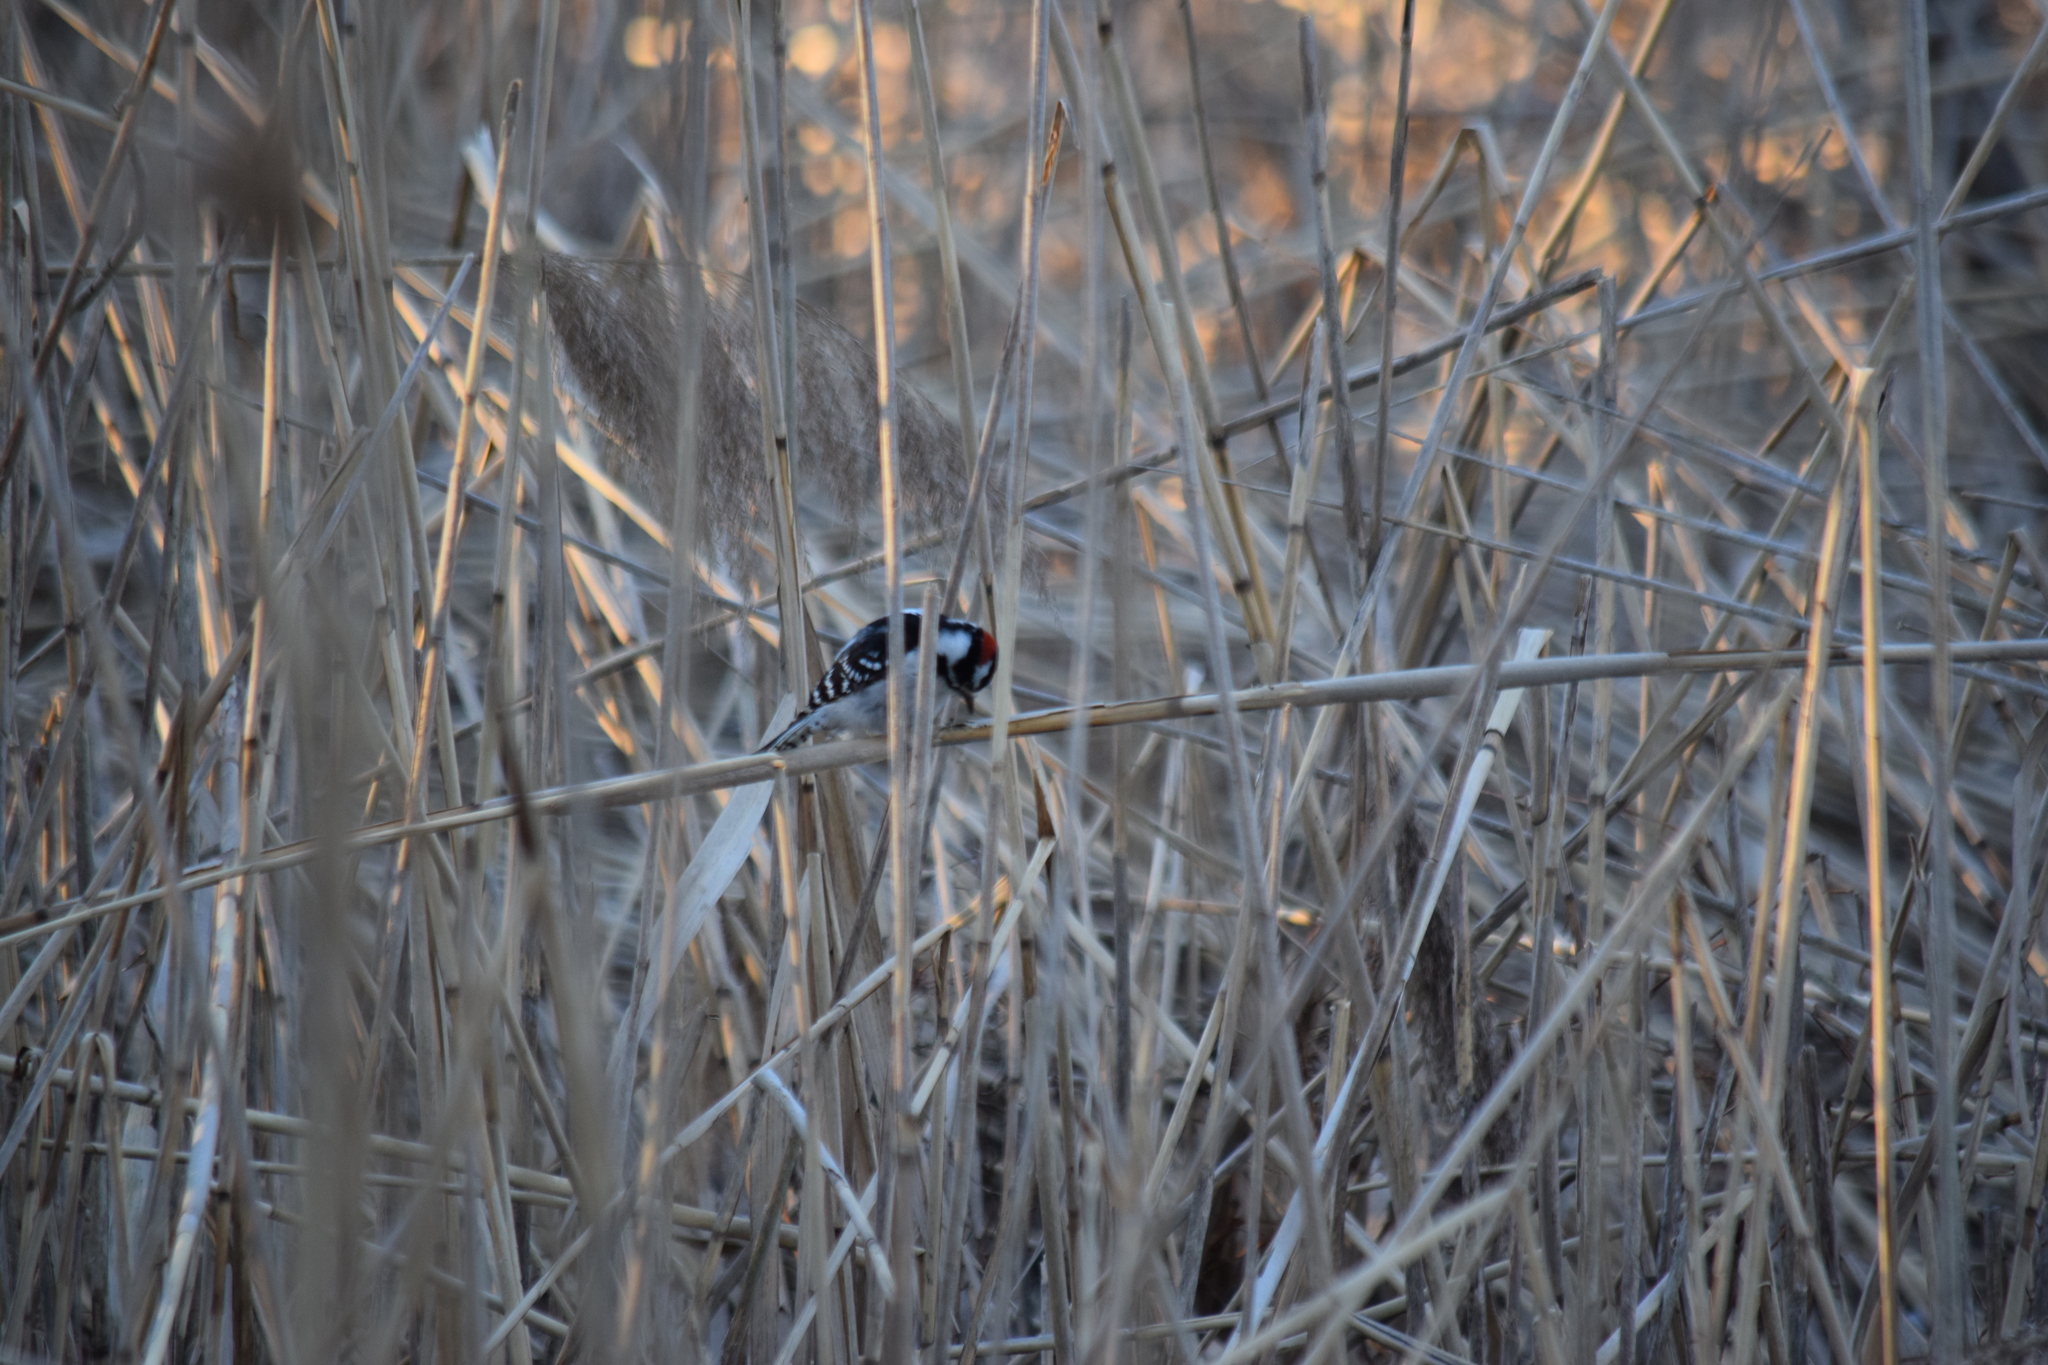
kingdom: Animalia
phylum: Chordata
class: Aves
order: Piciformes
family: Picidae
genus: Dryobates
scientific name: Dryobates pubescens
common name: Downy woodpecker
